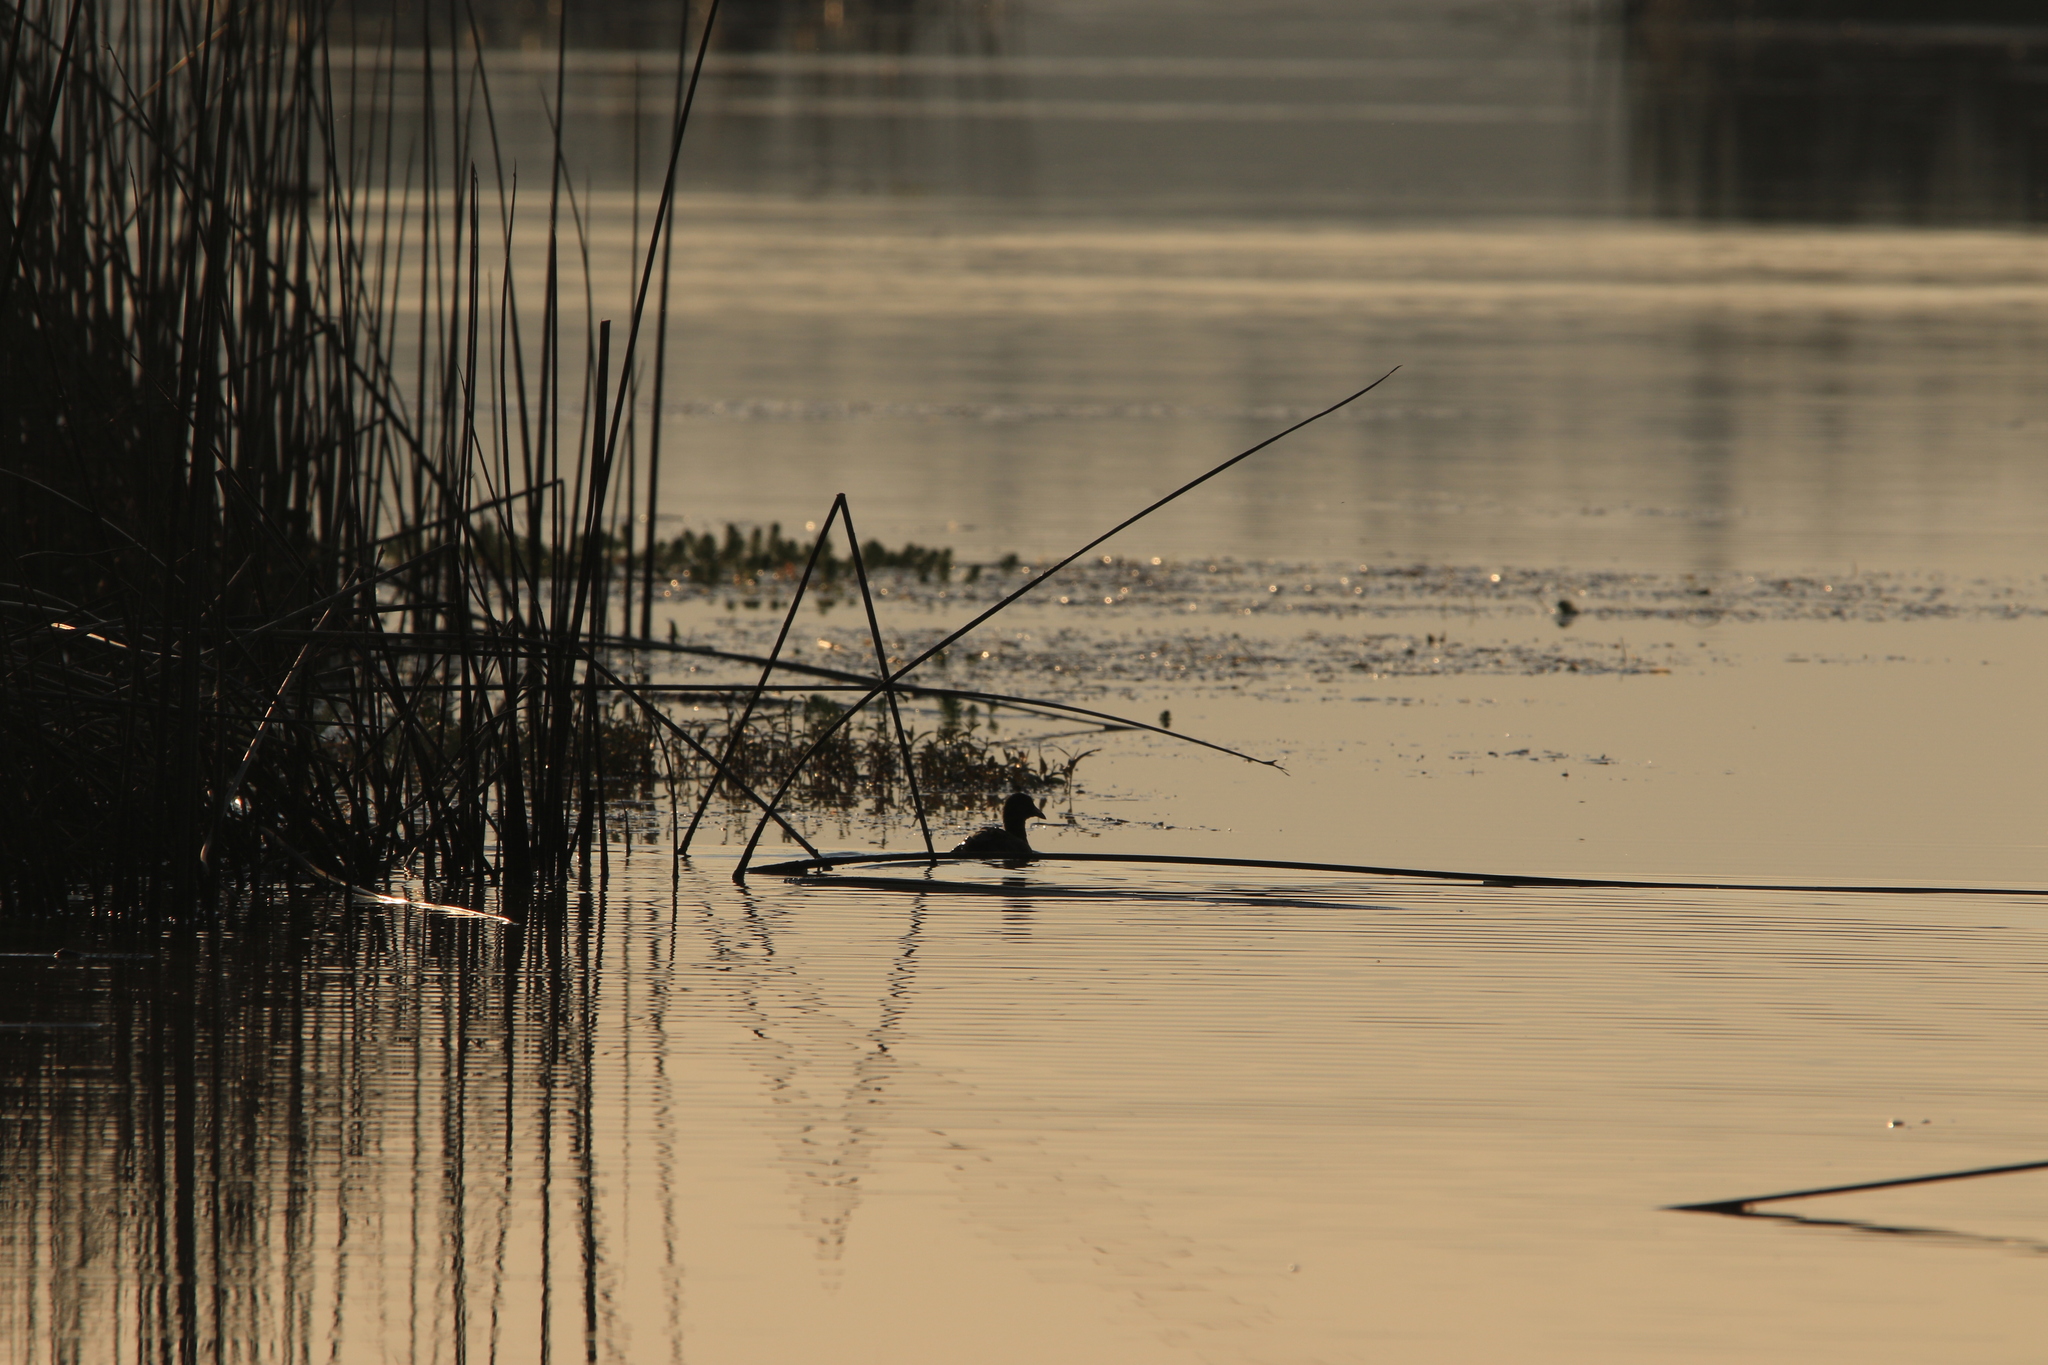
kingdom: Animalia
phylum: Chordata
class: Aves
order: Gruiformes
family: Rallidae
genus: Fulica
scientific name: Fulica americana
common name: American coot
